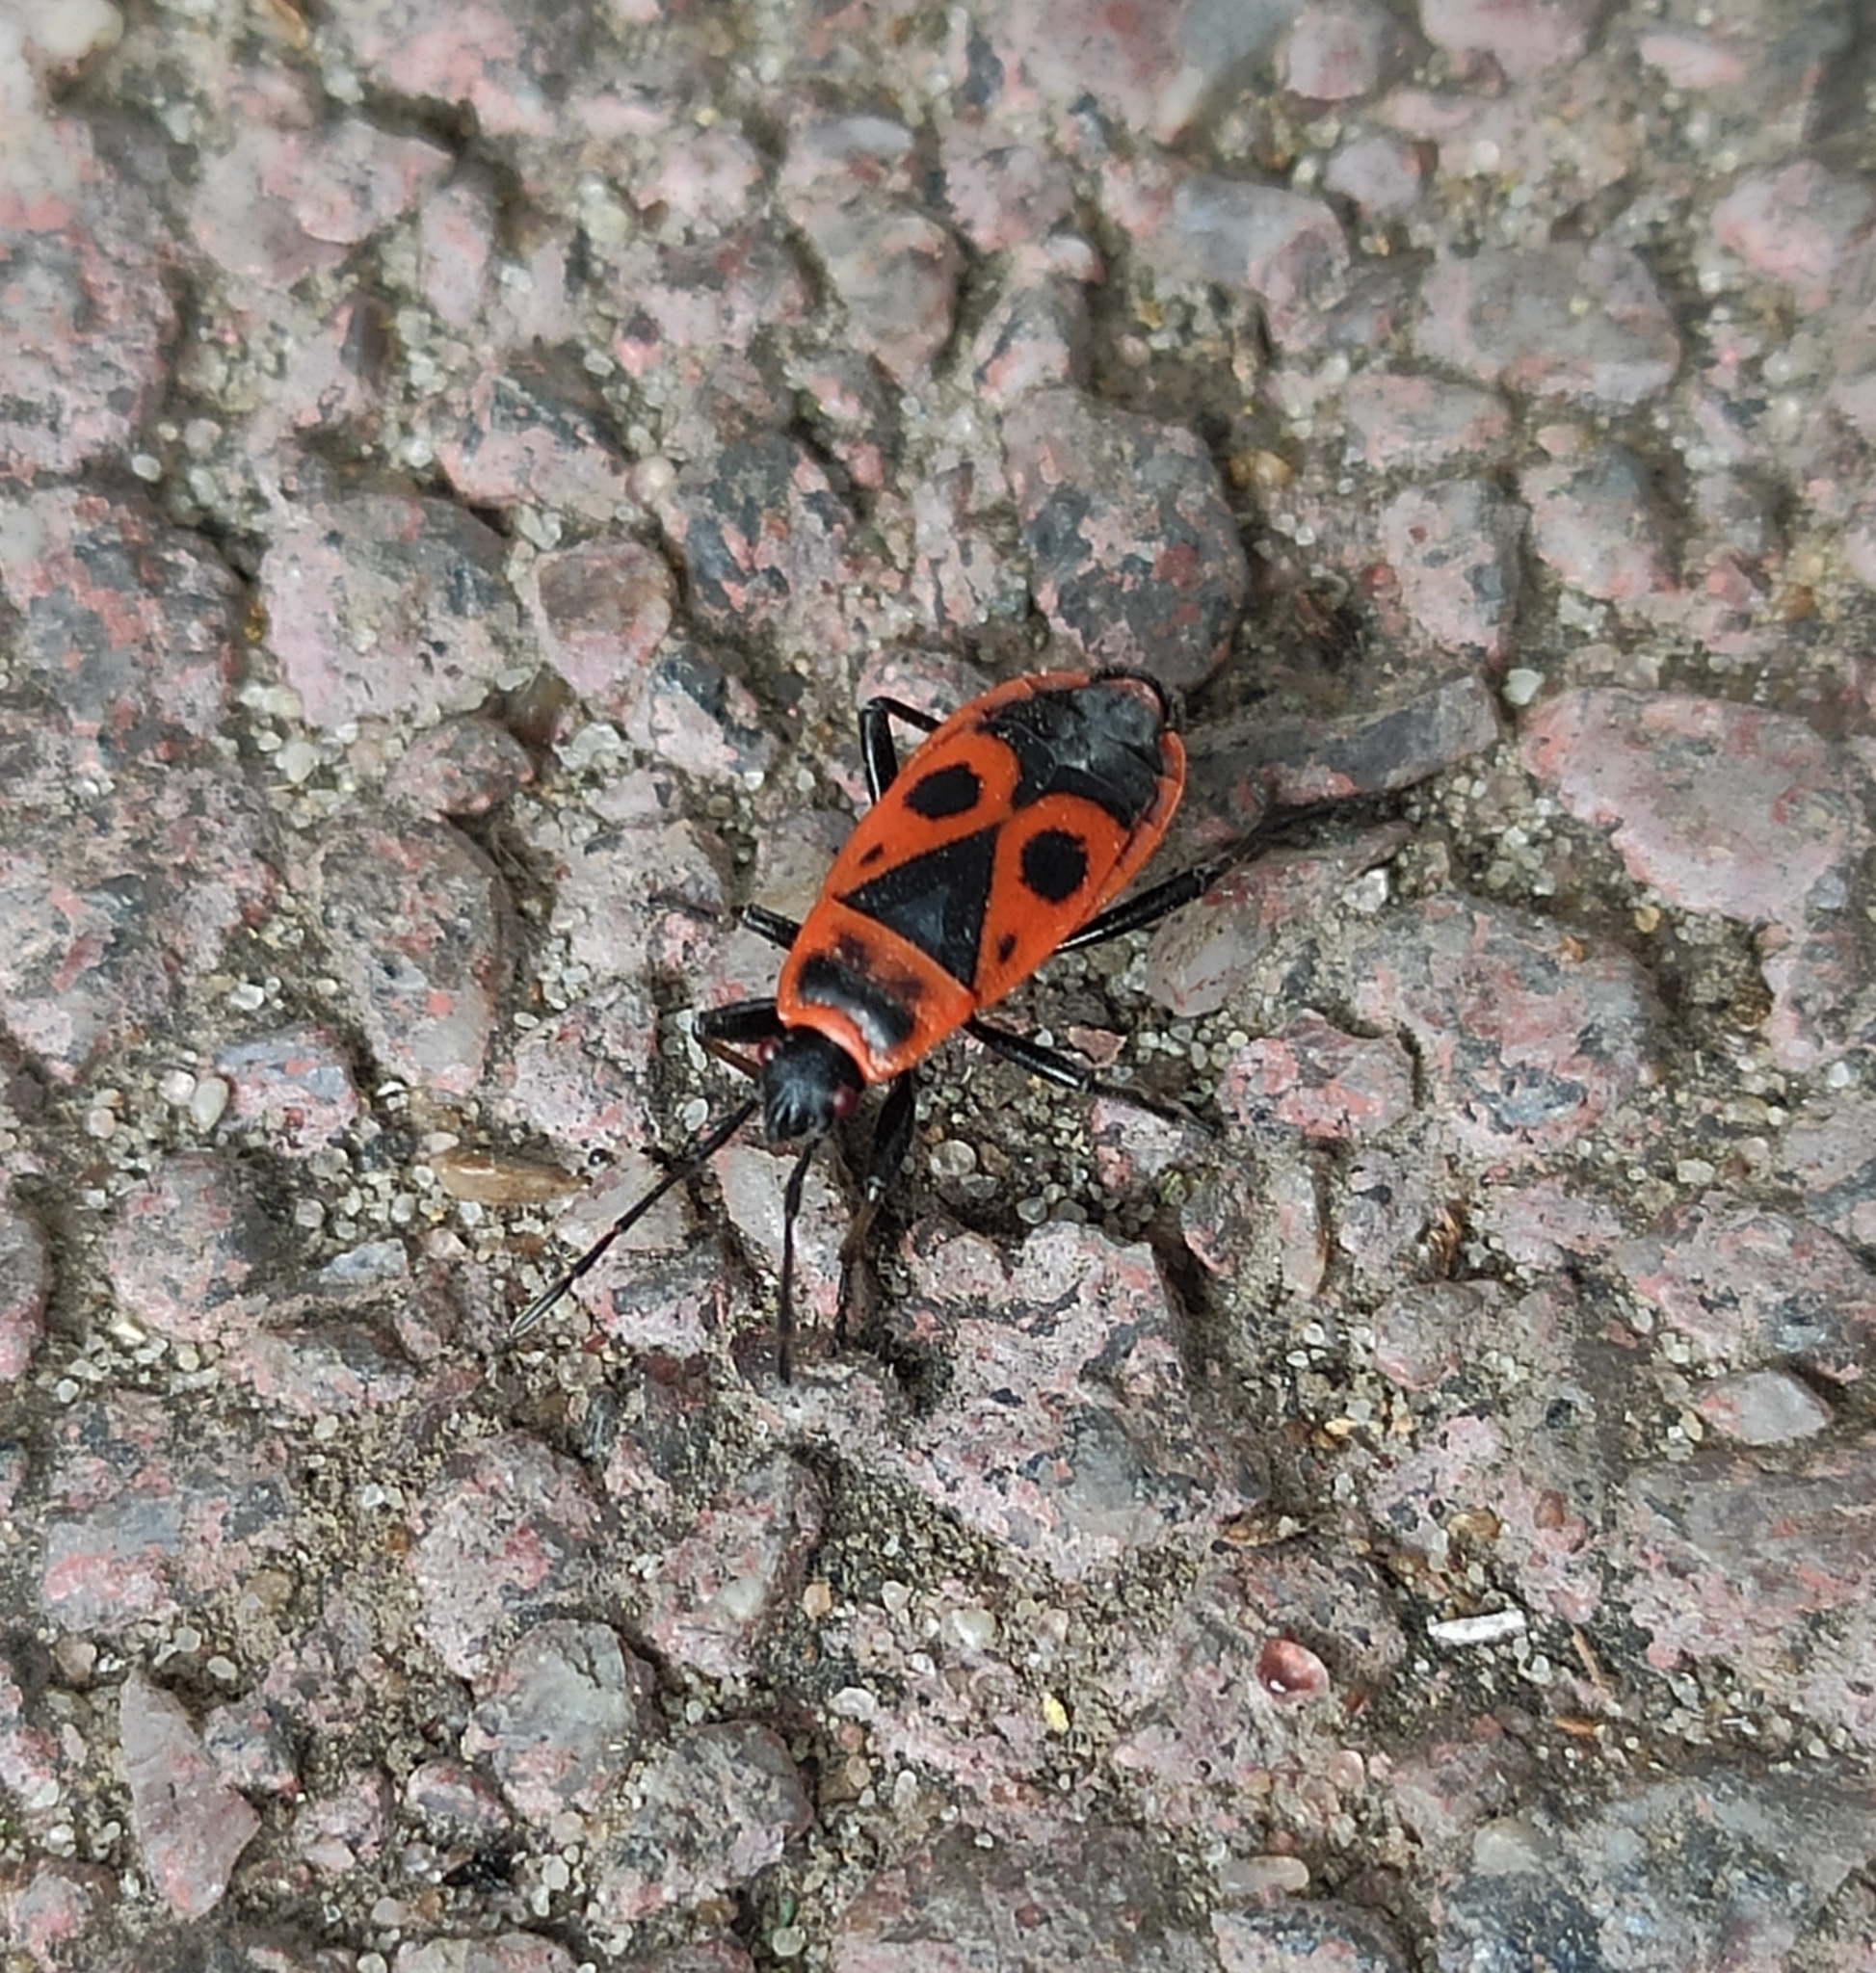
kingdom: Animalia
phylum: Arthropoda
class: Insecta
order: Hemiptera
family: Pyrrhocoridae
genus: Pyrrhocoris
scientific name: Pyrrhocoris apterus
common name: Firebug
